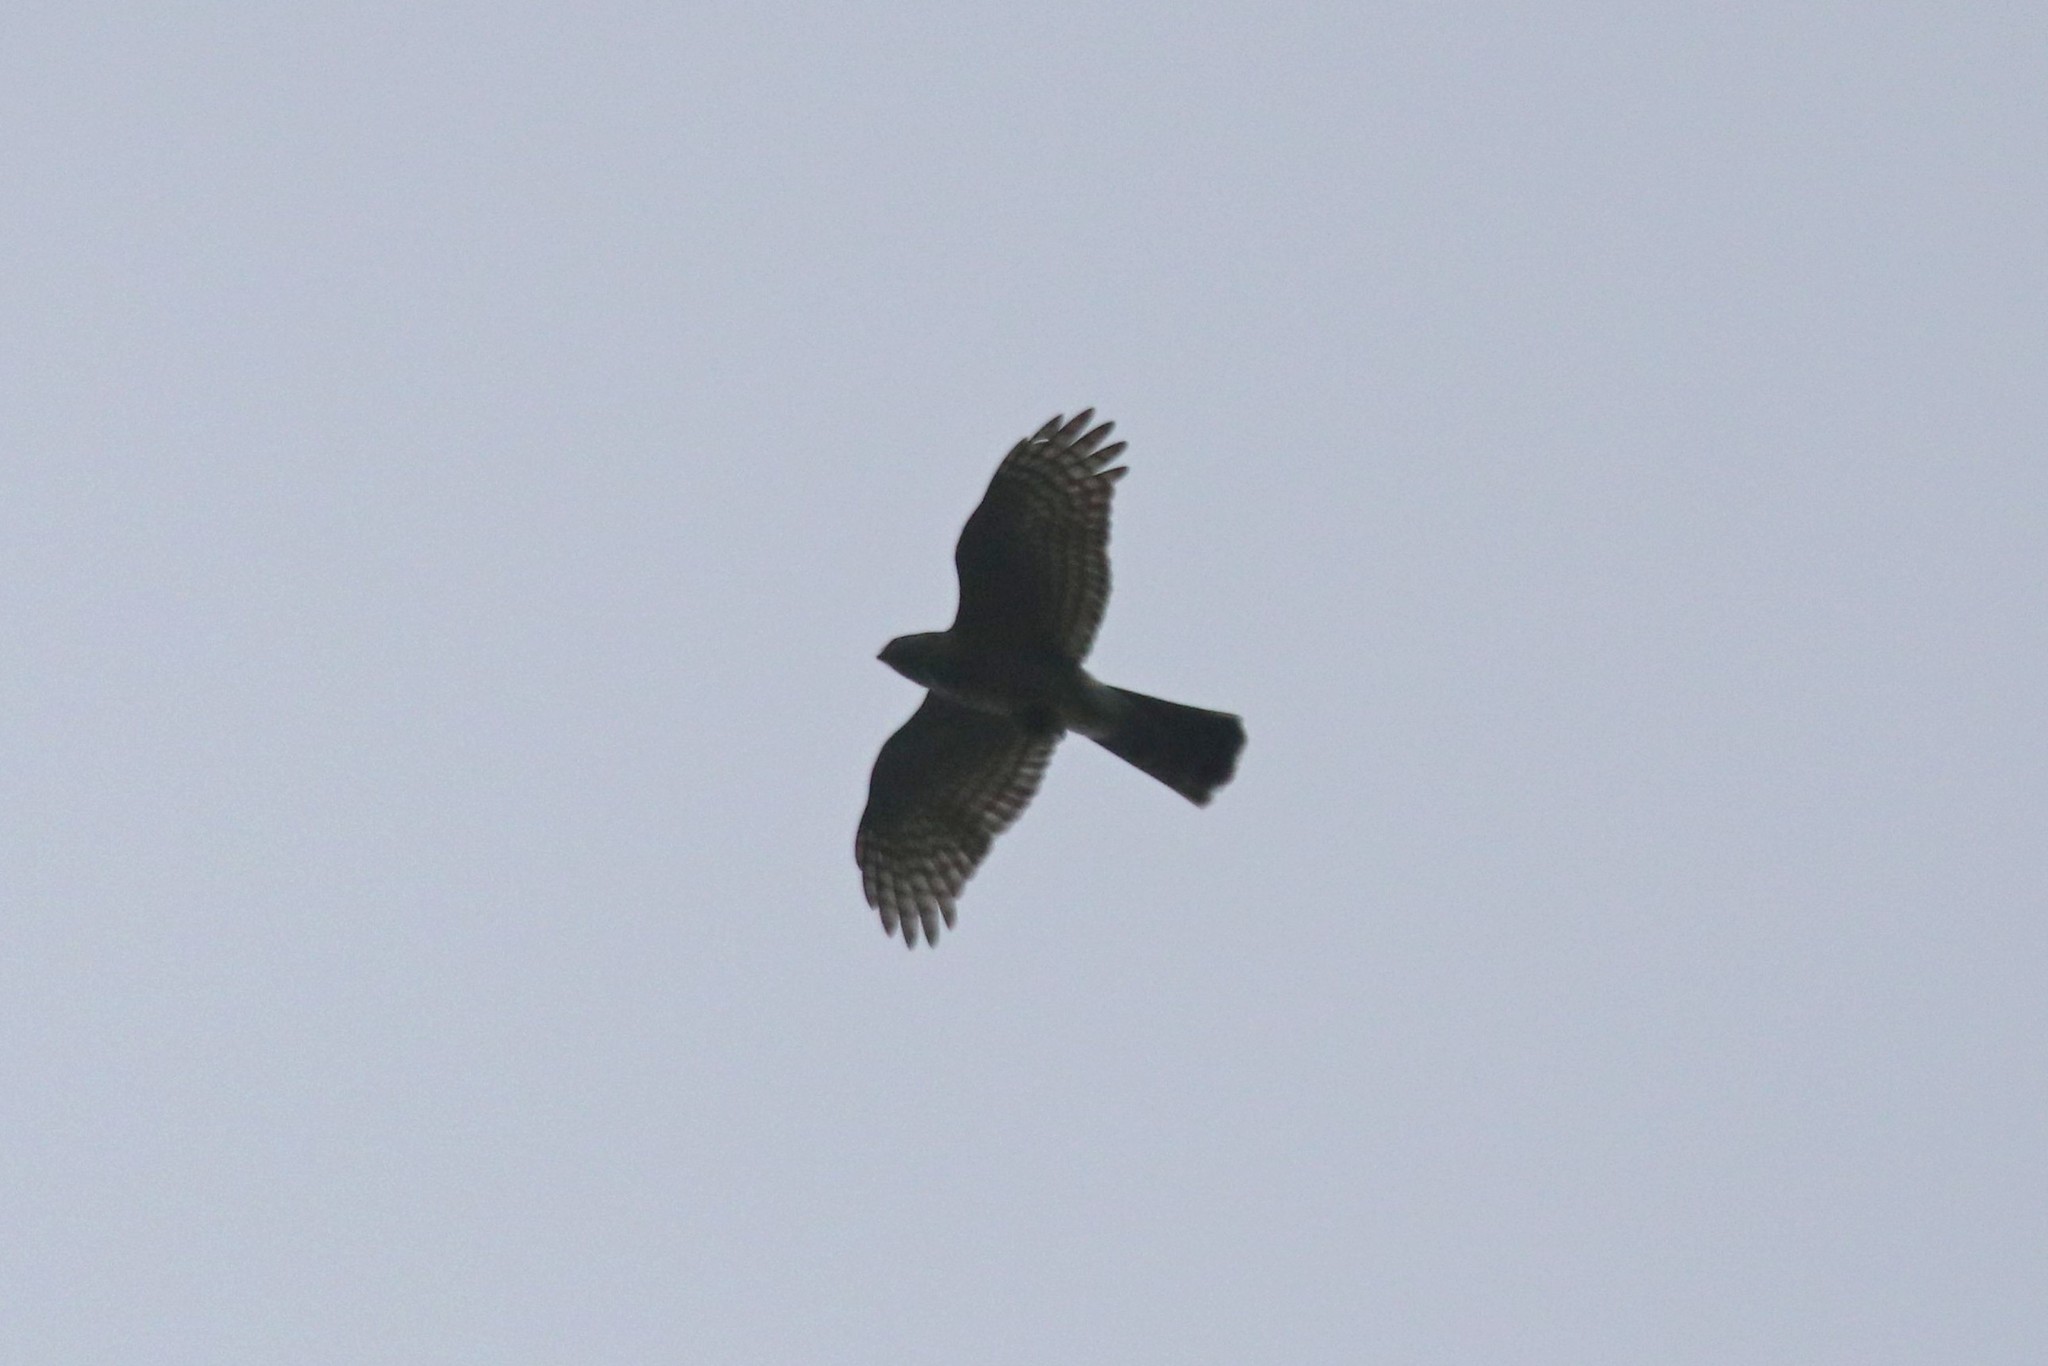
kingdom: Animalia
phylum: Chordata
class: Aves
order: Accipitriformes
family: Accipitridae
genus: Accipiter
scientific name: Accipiter nisus
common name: Eurasian sparrowhawk
